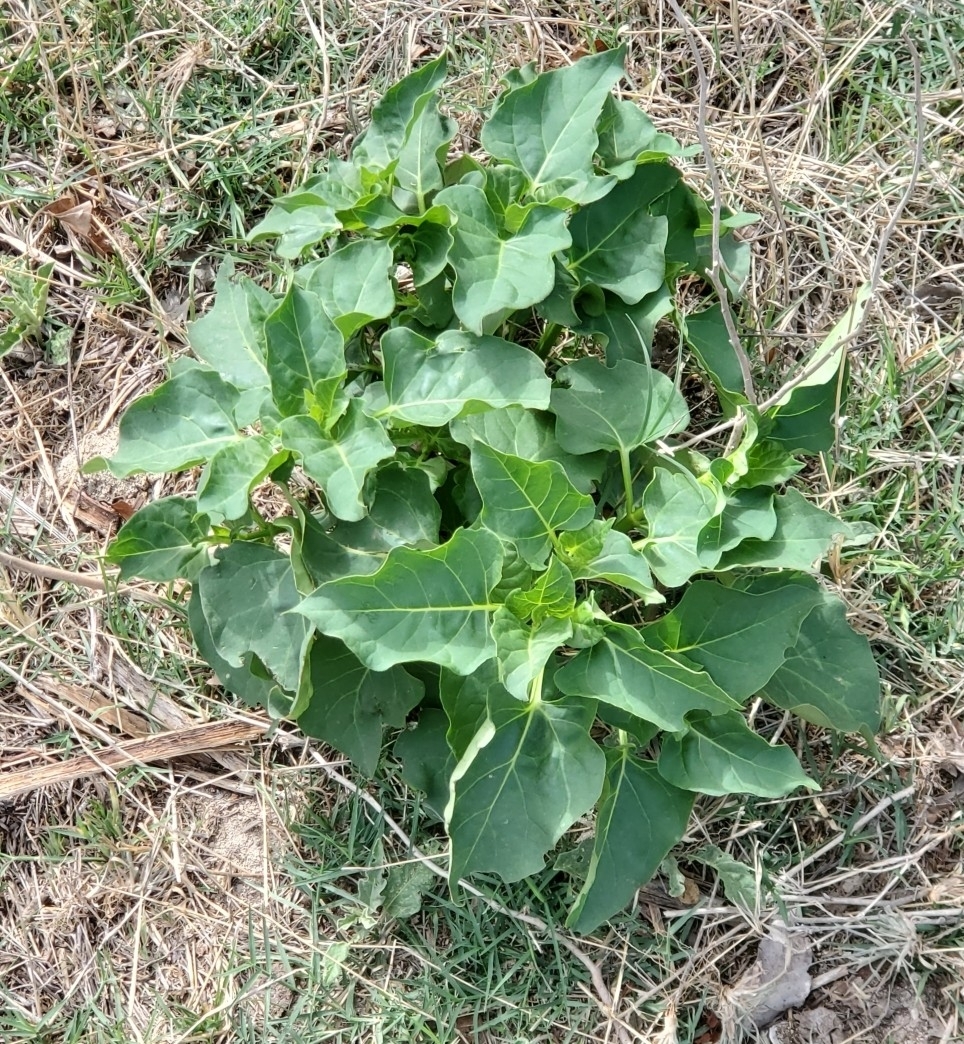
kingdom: Plantae
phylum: Tracheophyta
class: Magnoliopsida
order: Caryophyllales
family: Nyctaginaceae
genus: Mirabilis
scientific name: Mirabilis jalapa
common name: Marvel-of-peru
